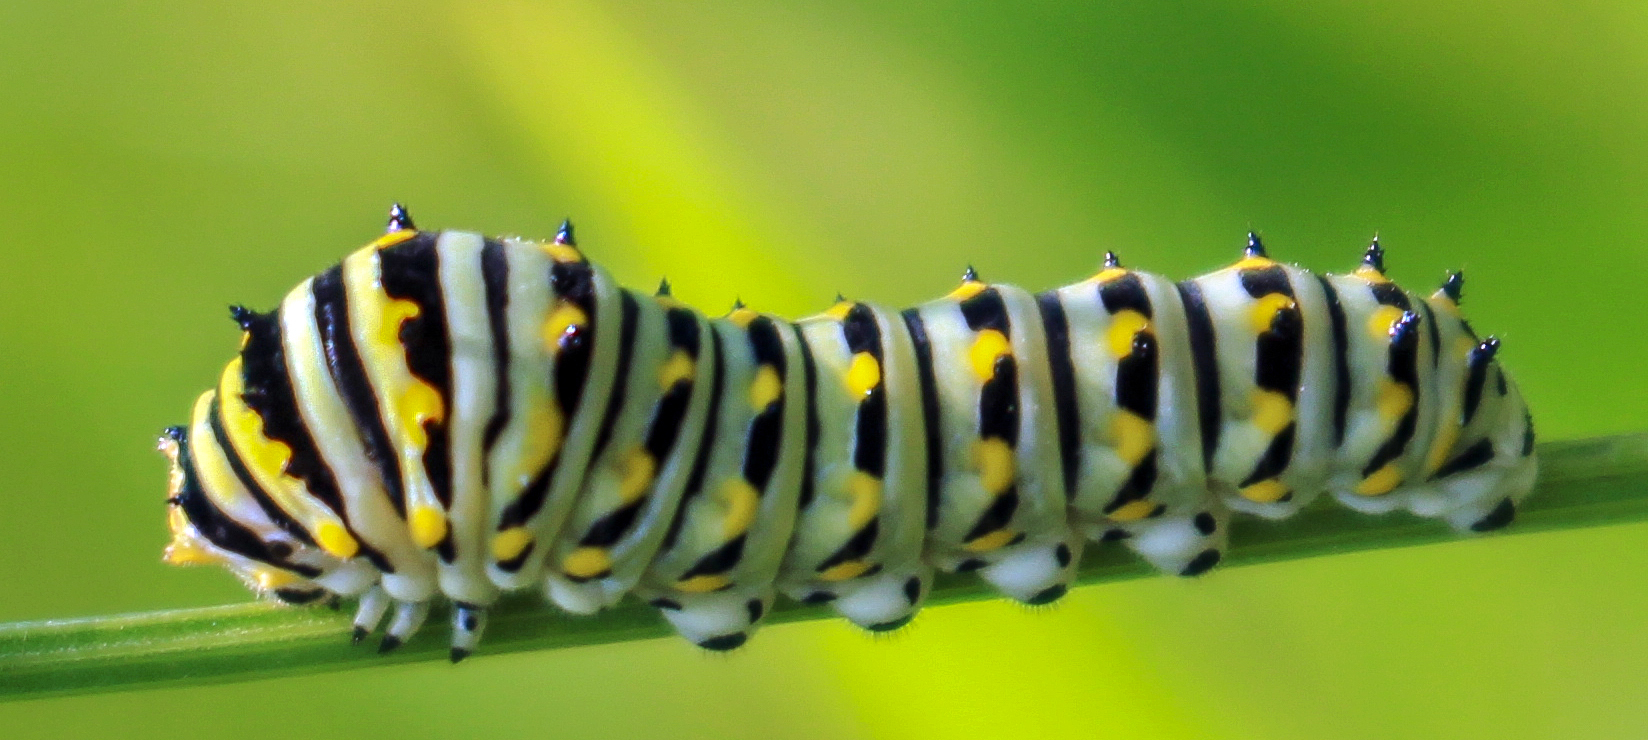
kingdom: Animalia
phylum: Arthropoda
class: Insecta
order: Lepidoptera
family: Papilionidae
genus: Papilio
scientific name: Papilio polyxenes
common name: Black swallowtail
